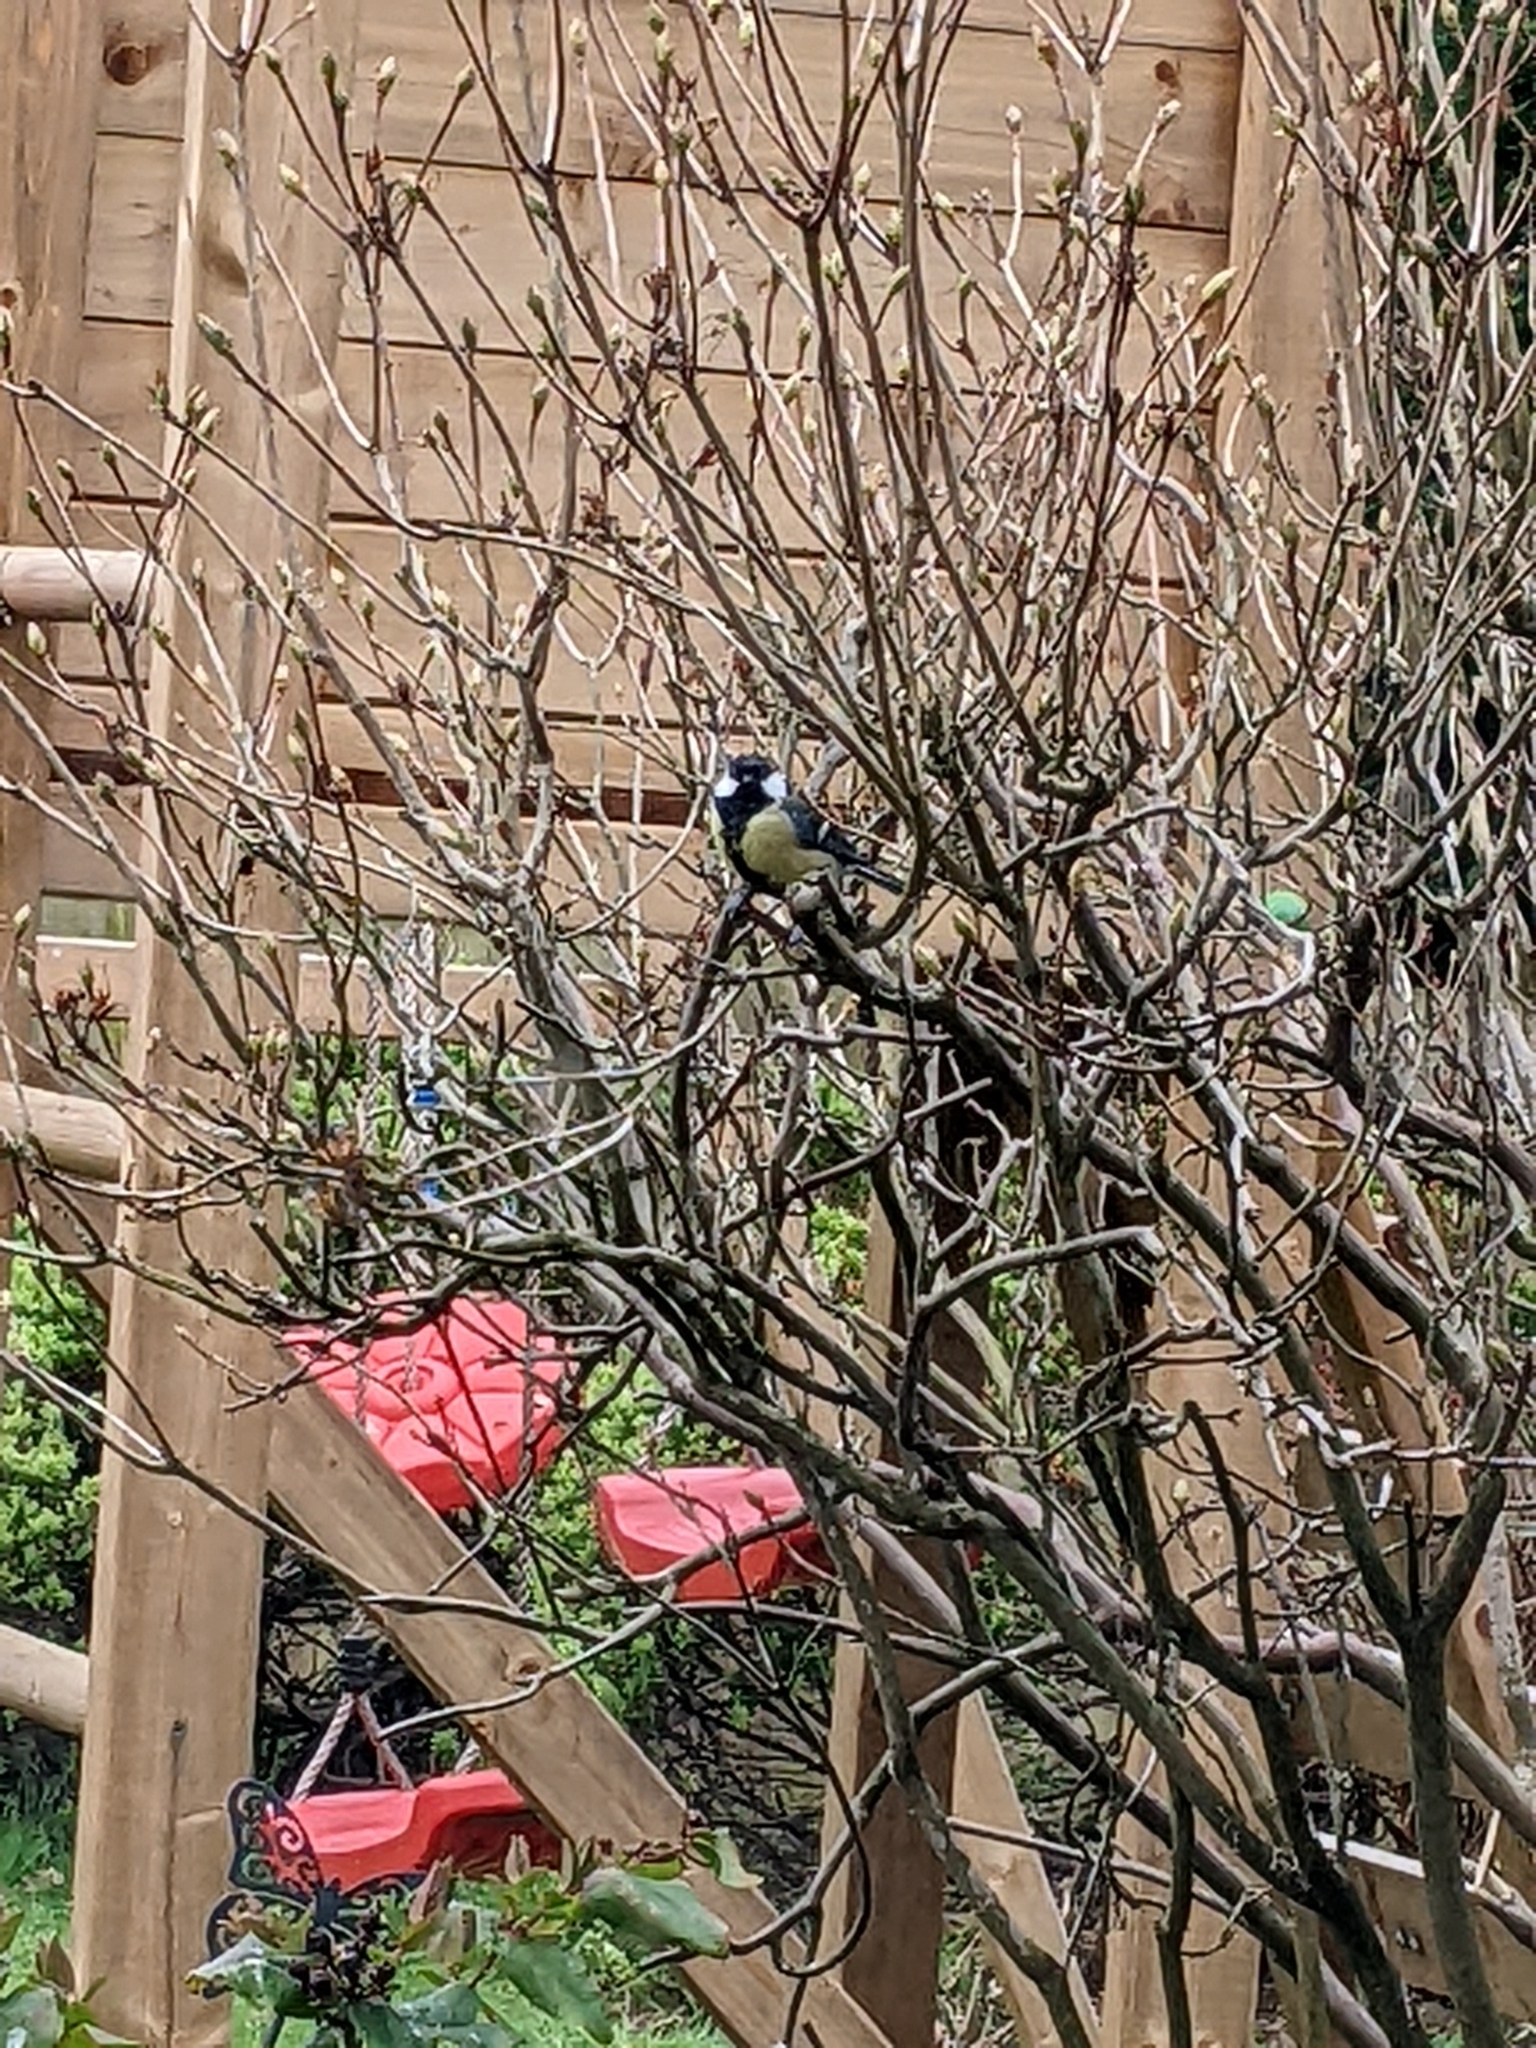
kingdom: Animalia
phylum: Chordata
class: Aves
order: Passeriformes
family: Paridae
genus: Parus
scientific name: Parus major
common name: Great tit
